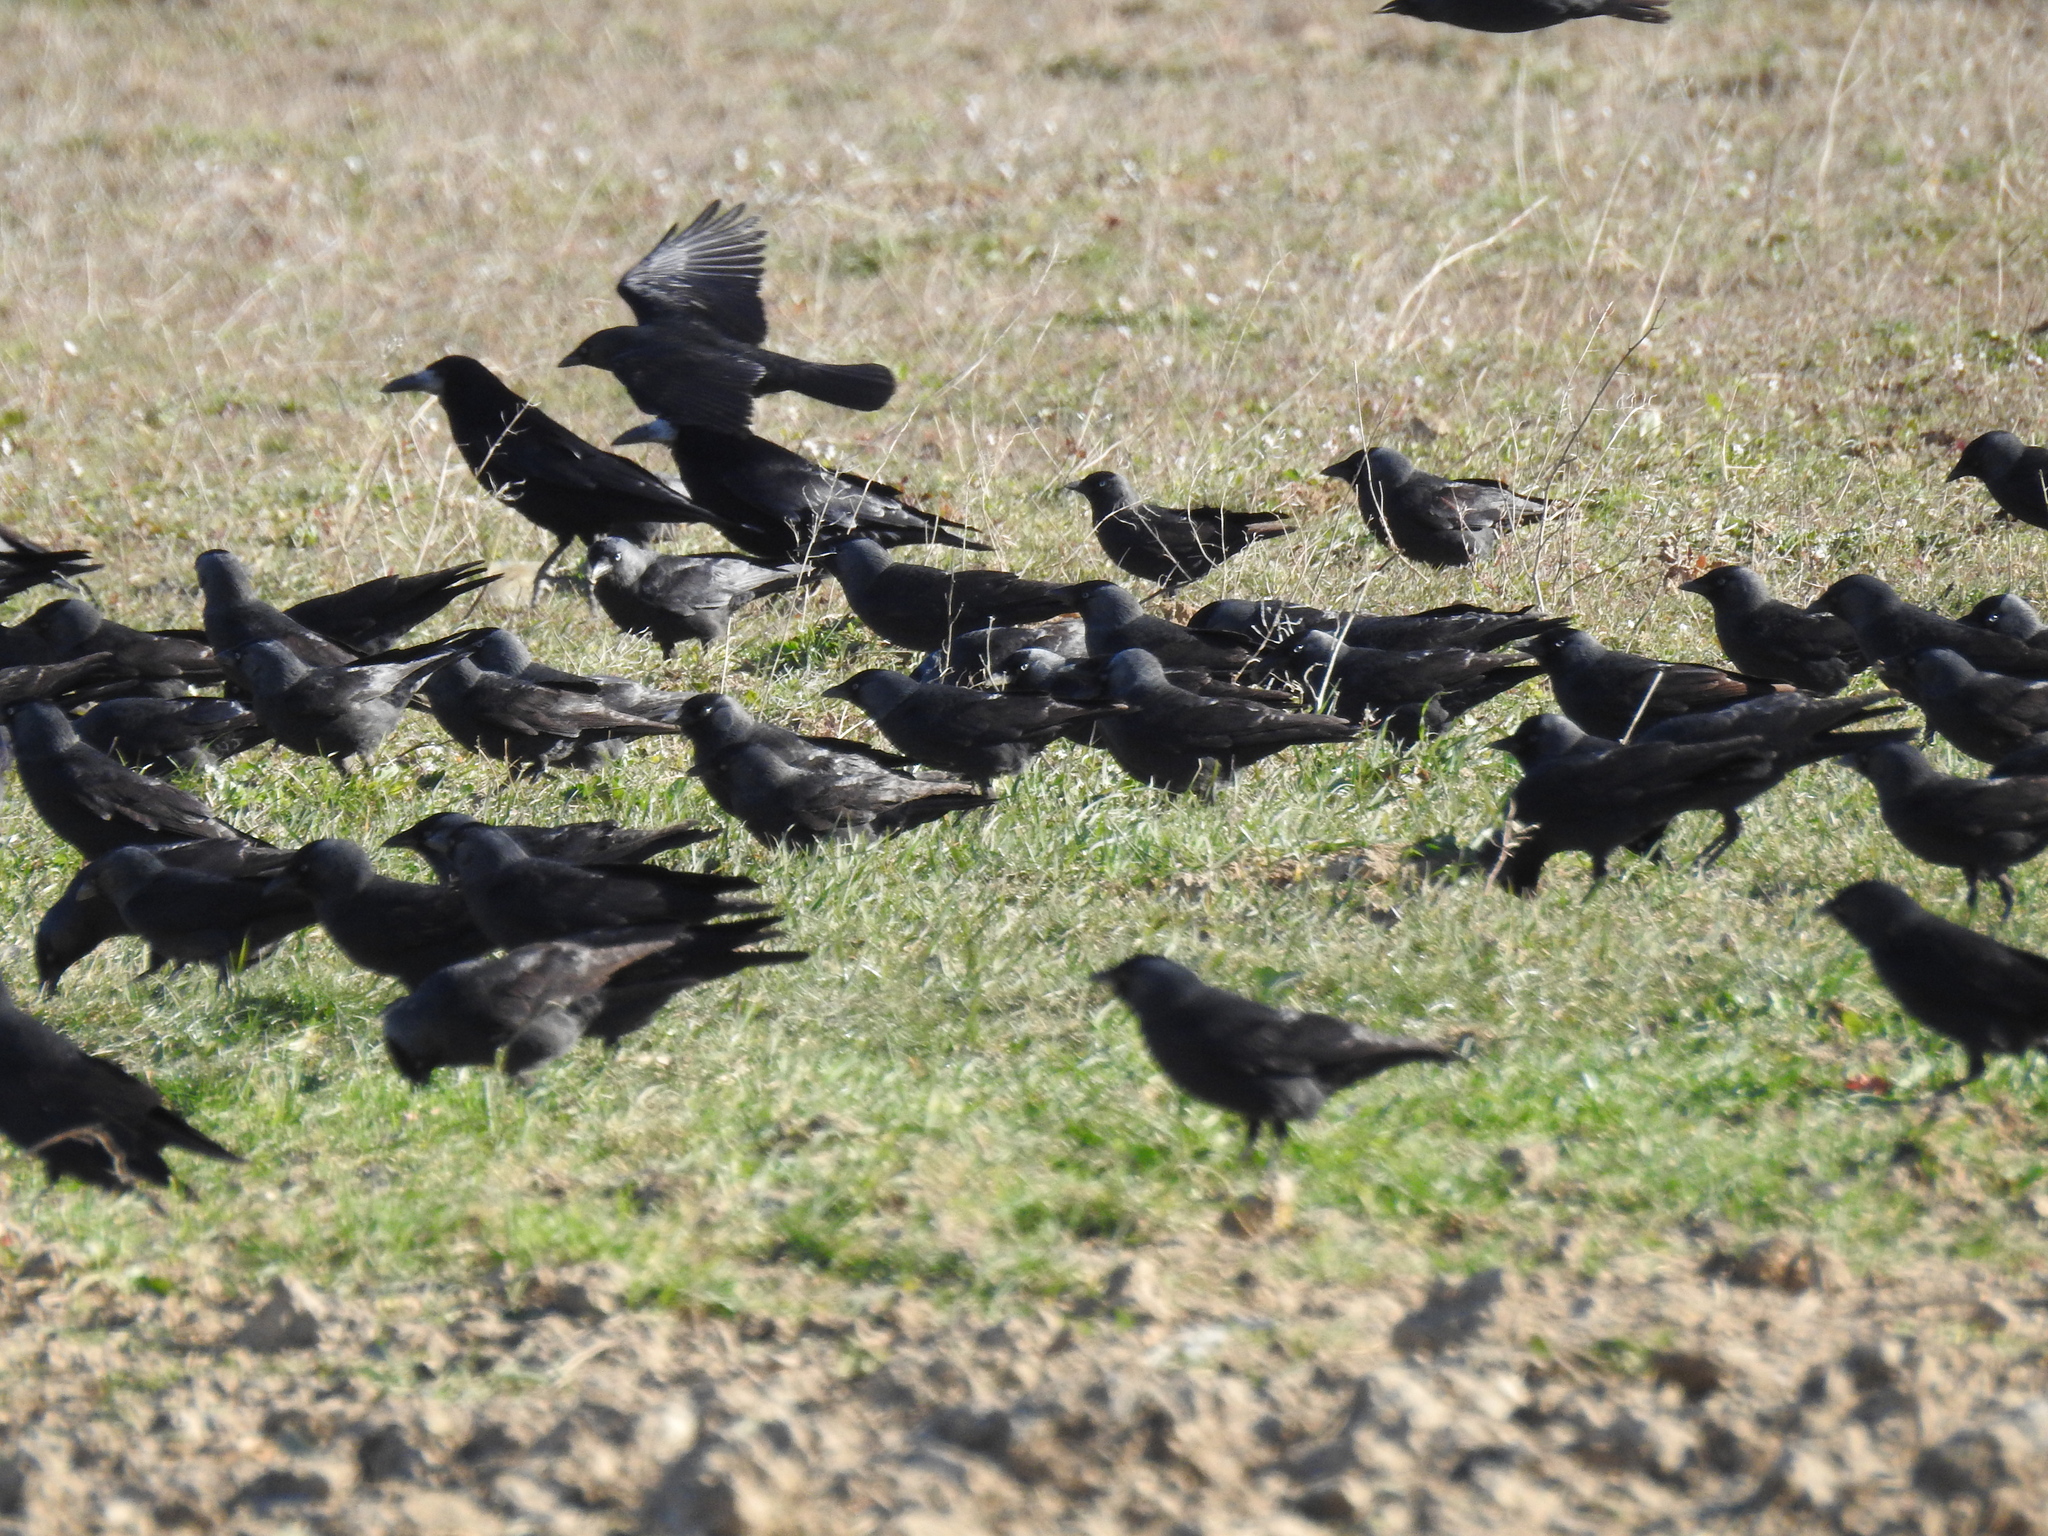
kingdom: Animalia
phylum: Chordata
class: Aves
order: Passeriformes
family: Corvidae
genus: Coloeus
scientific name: Coloeus monedula
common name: Western jackdaw
